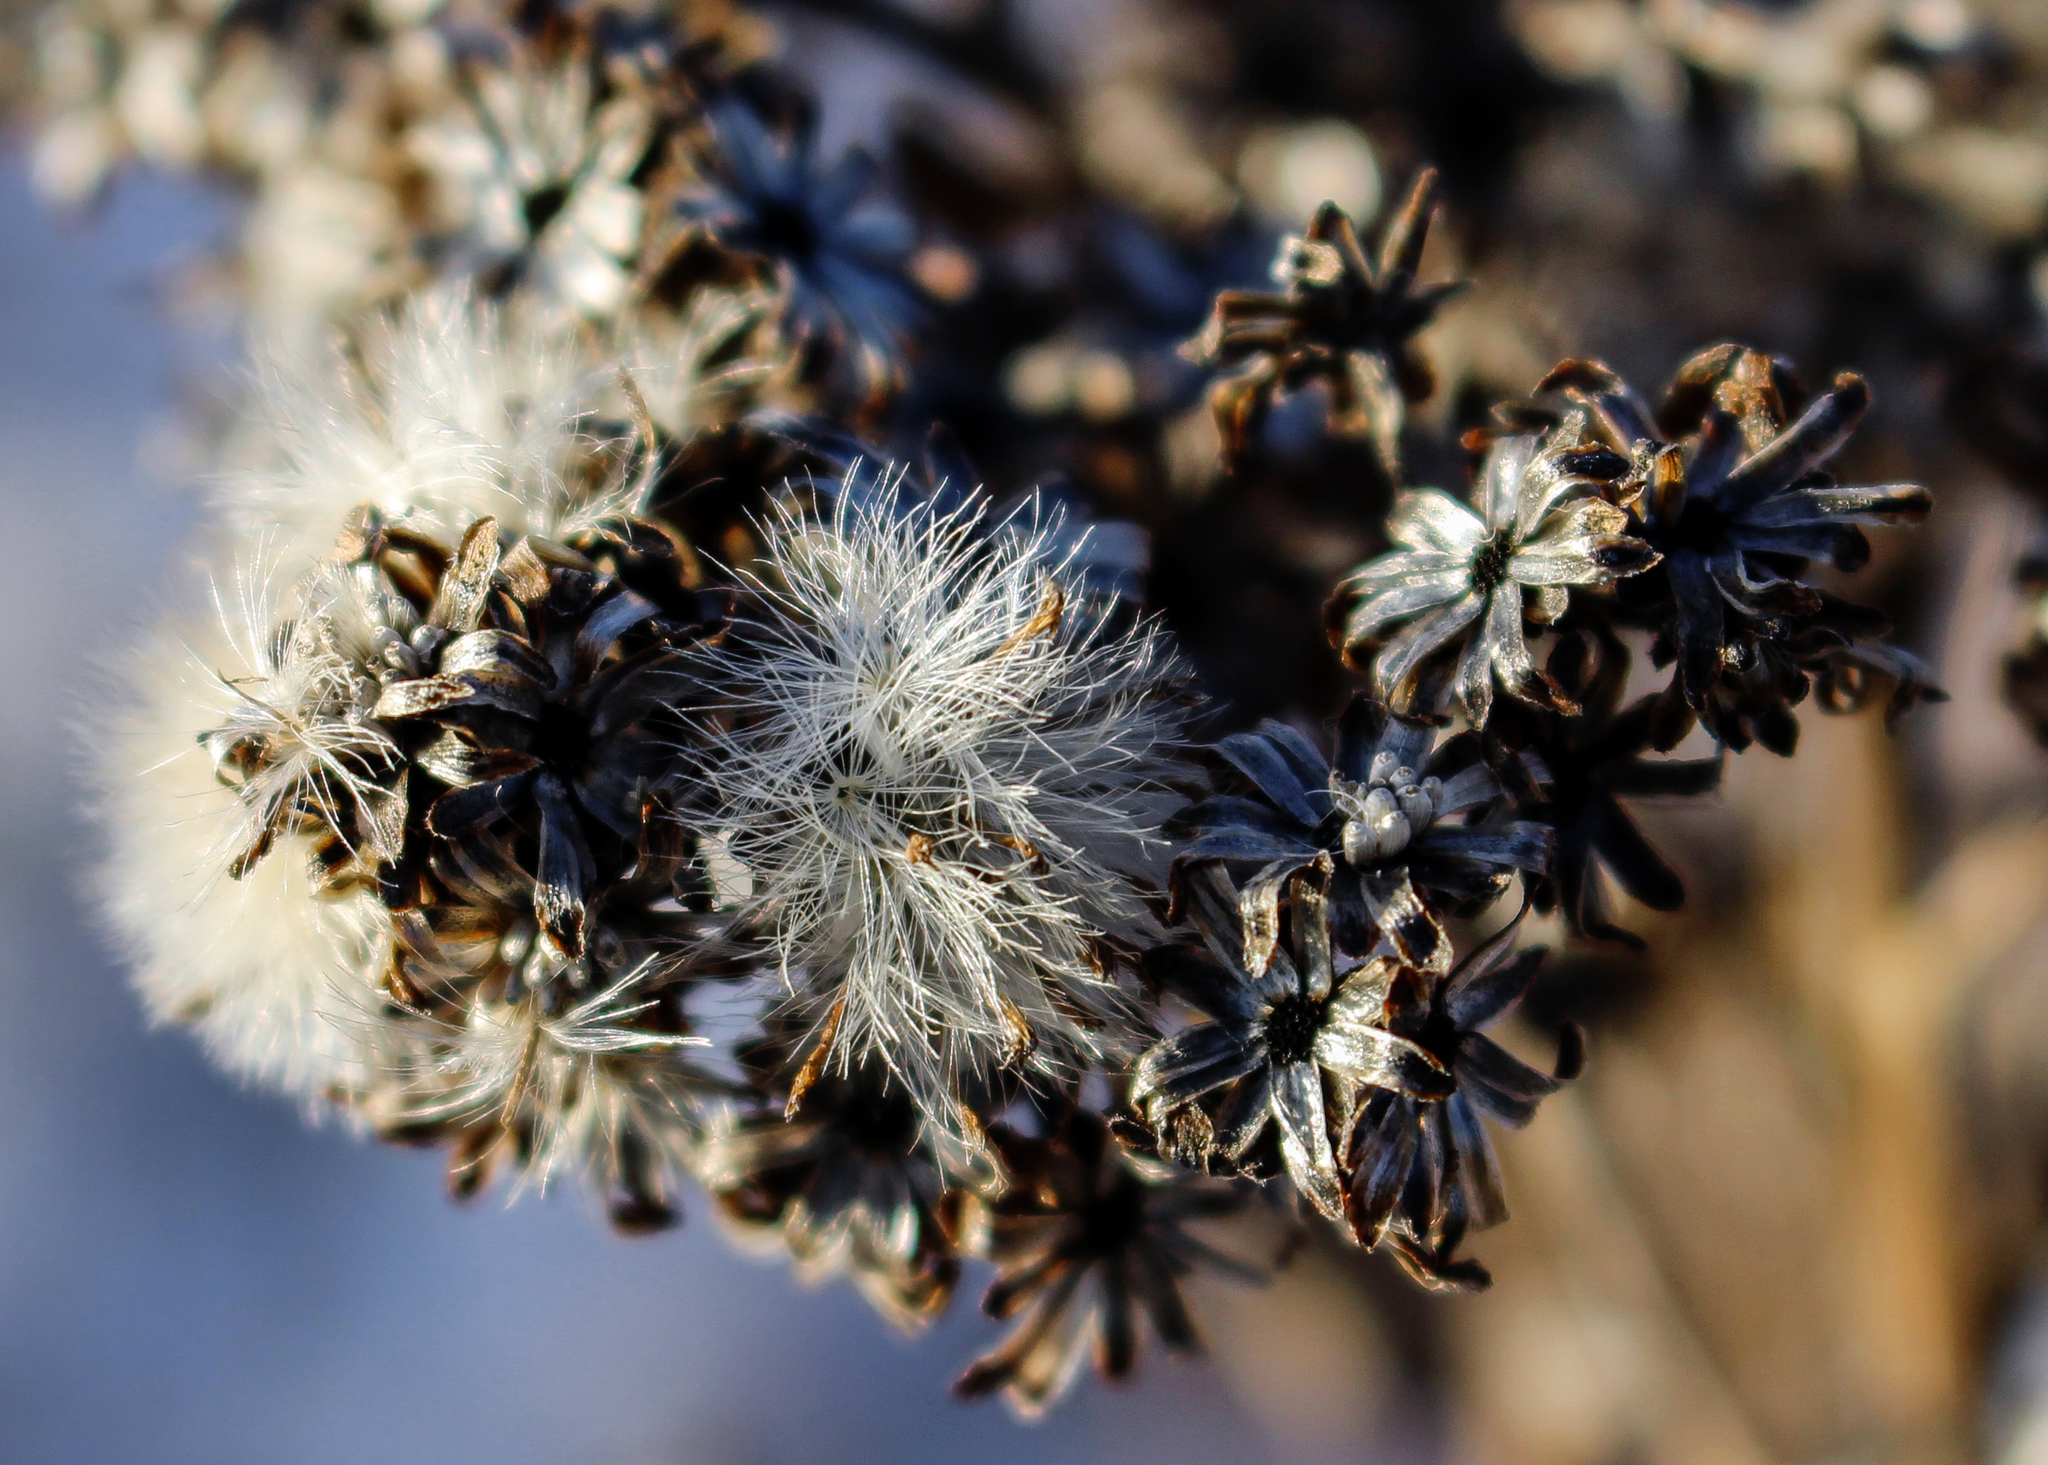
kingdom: Plantae
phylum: Tracheophyta
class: Magnoliopsida
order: Asterales
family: Asteraceae
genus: Solidago
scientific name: Solidago rigida
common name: Rigid goldenrod
